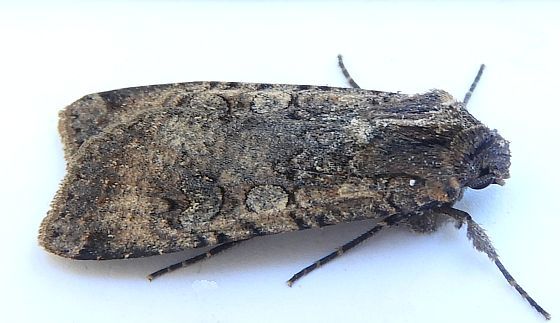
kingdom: Animalia
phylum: Arthropoda
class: Insecta
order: Lepidoptera
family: Noctuidae
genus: Peridroma
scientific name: Peridroma saucia
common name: Pearly underwing
